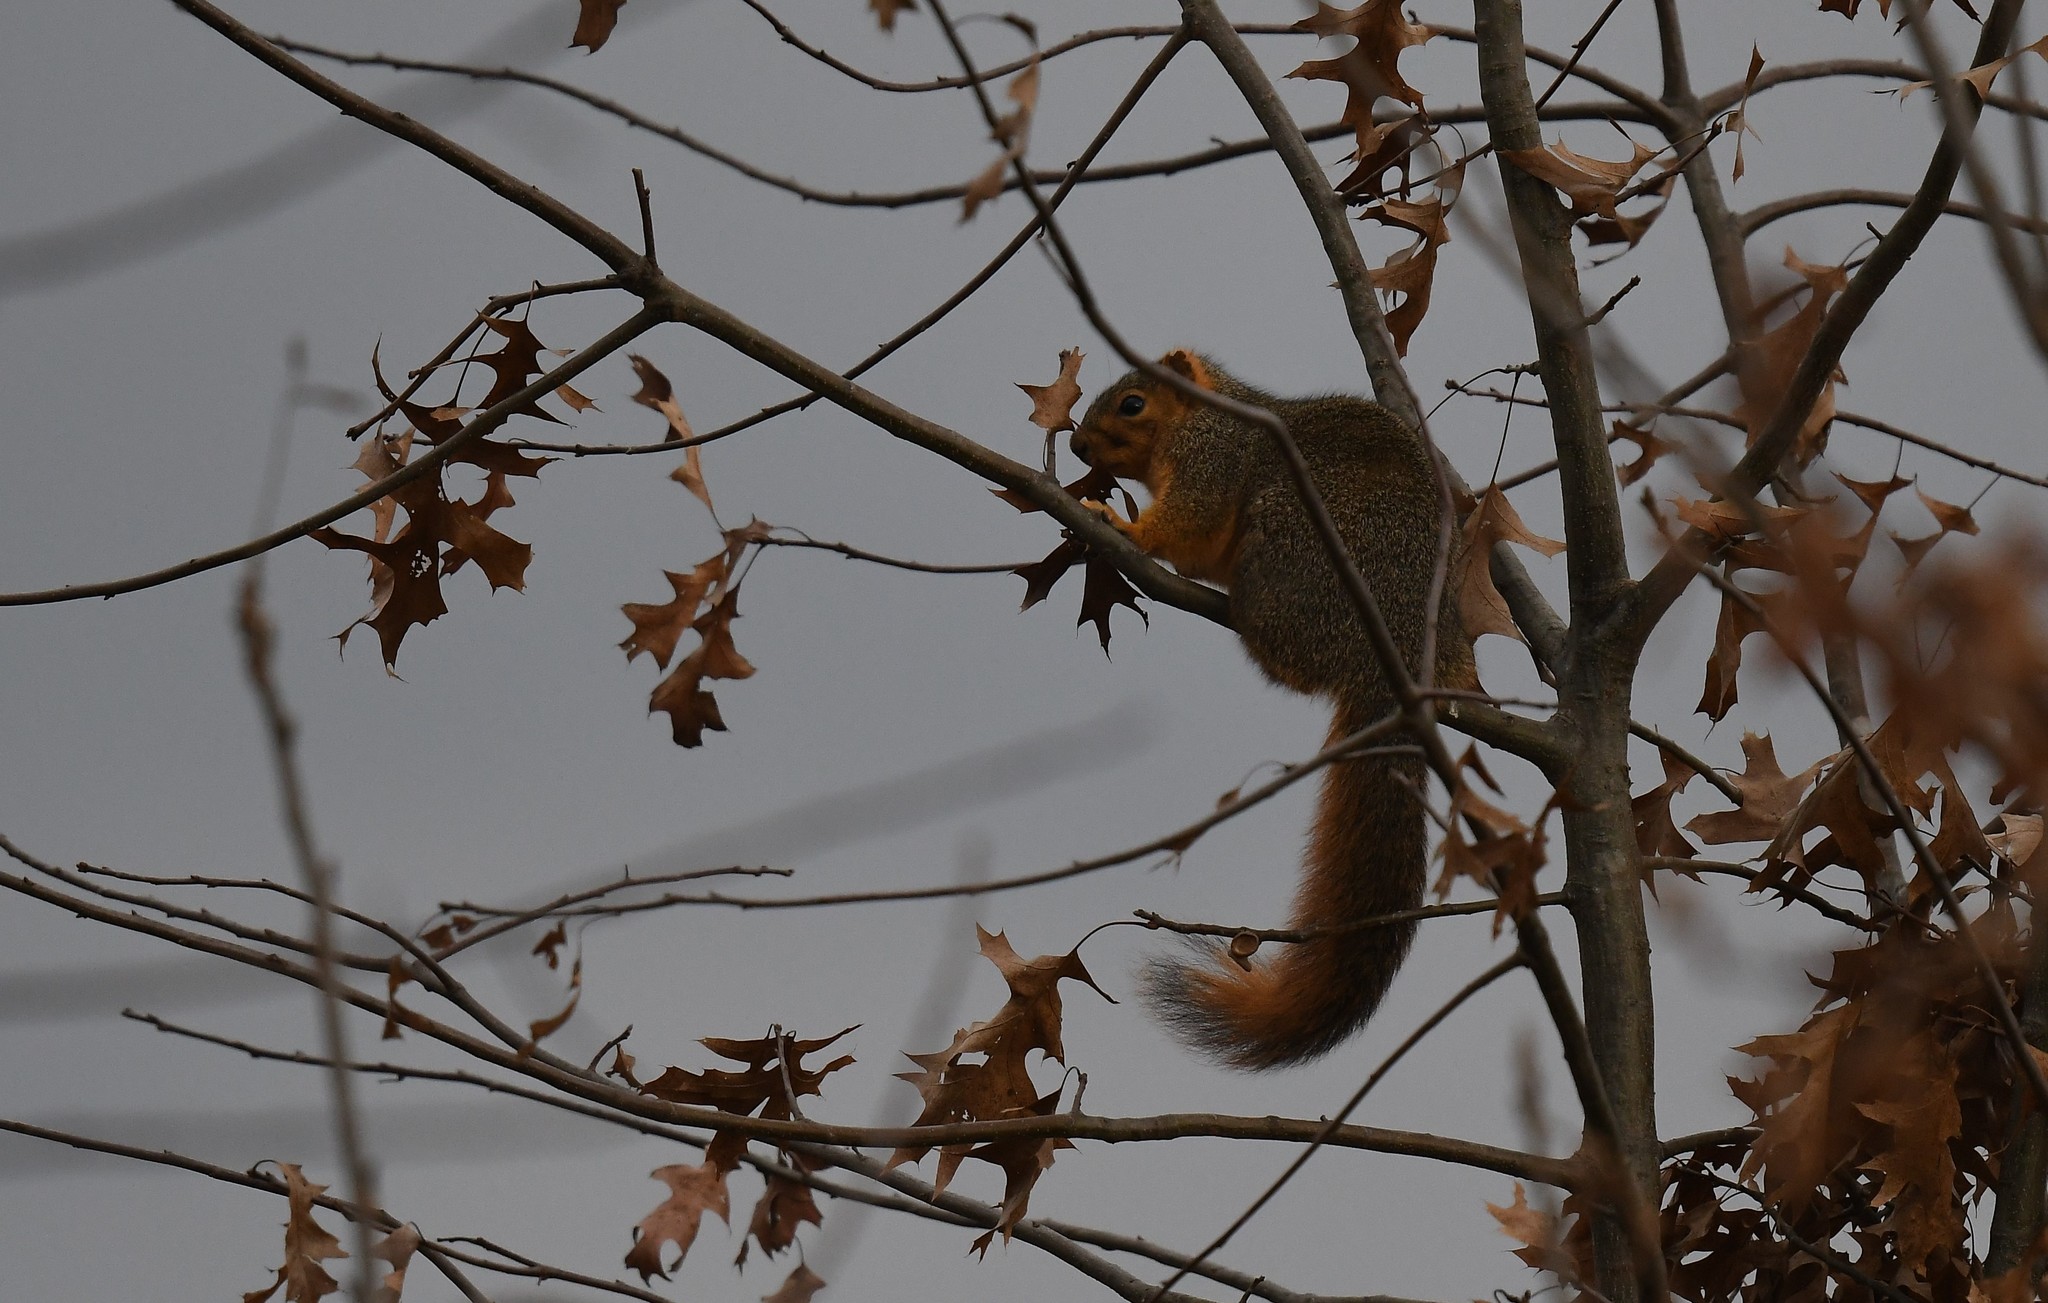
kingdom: Animalia
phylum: Chordata
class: Mammalia
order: Rodentia
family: Sciuridae
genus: Sciurus
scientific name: Sciurus niger
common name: Fox squirrel
